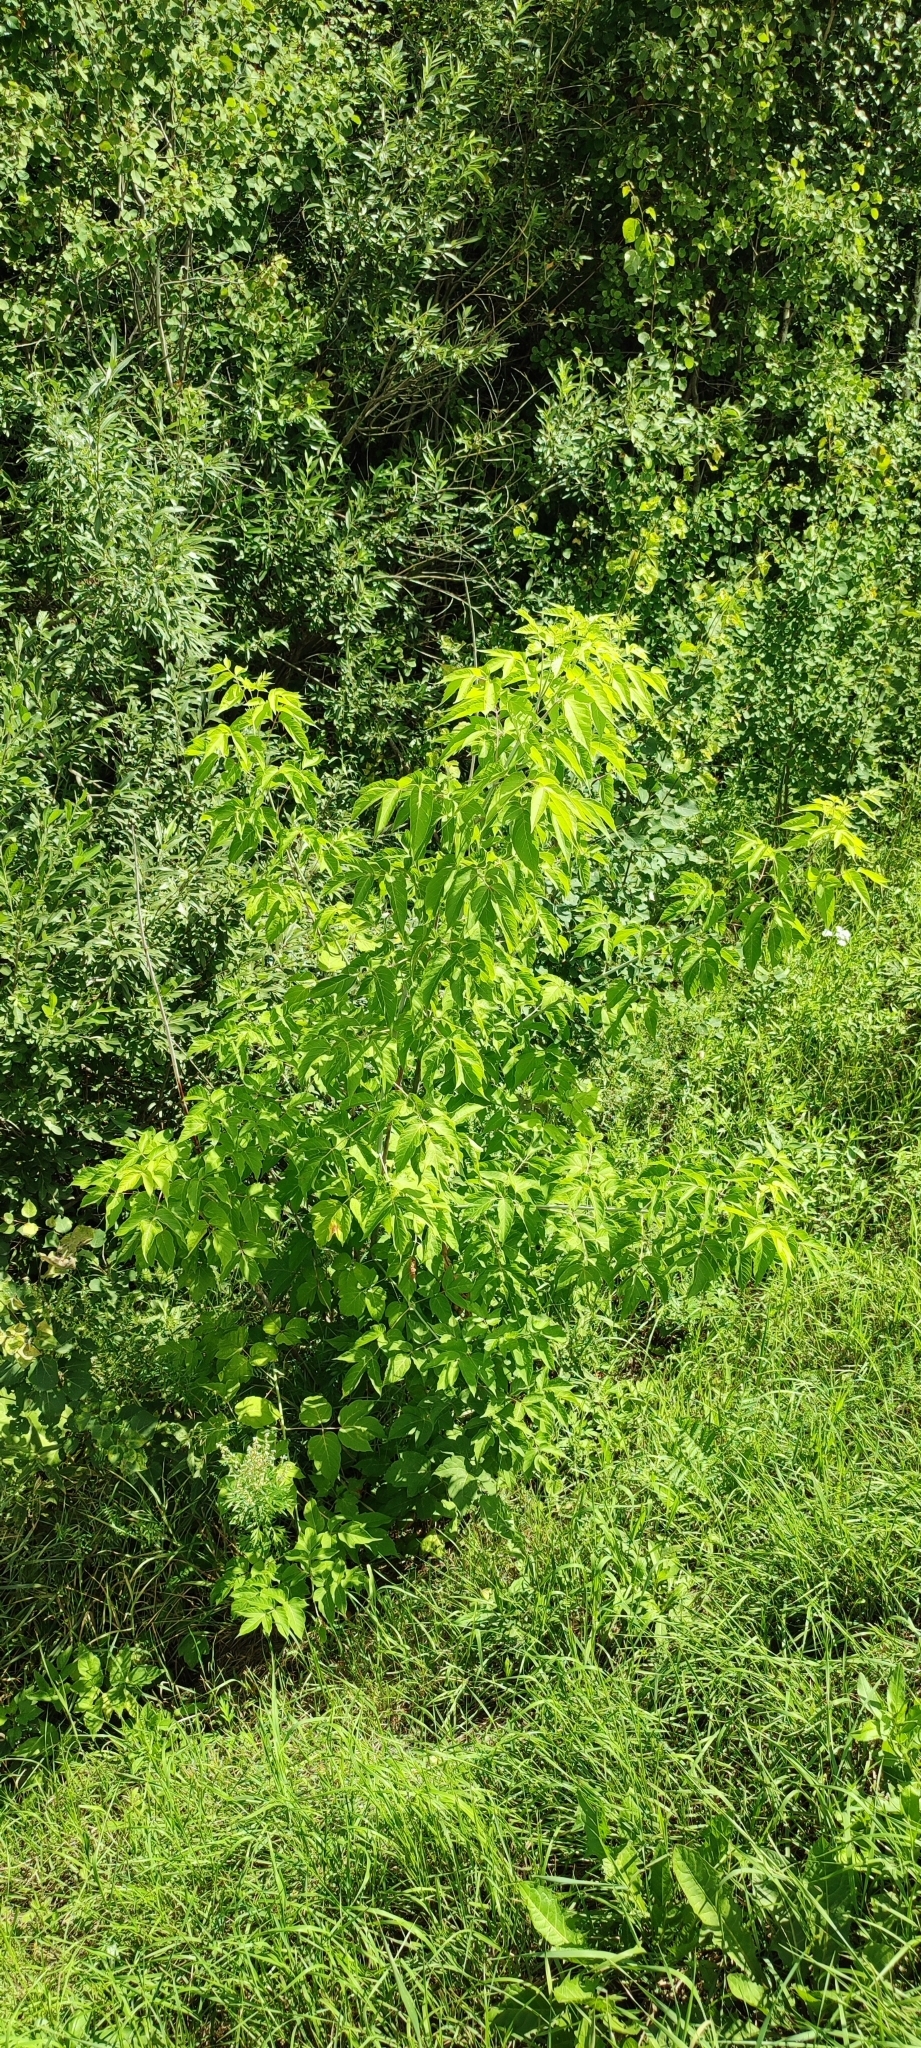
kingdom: Plantae
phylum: Tracheophyta
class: Magnoliopsida
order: Sapindales
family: Sapindaceae
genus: Acer
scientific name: Acer negundo
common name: Ashleaf maple
